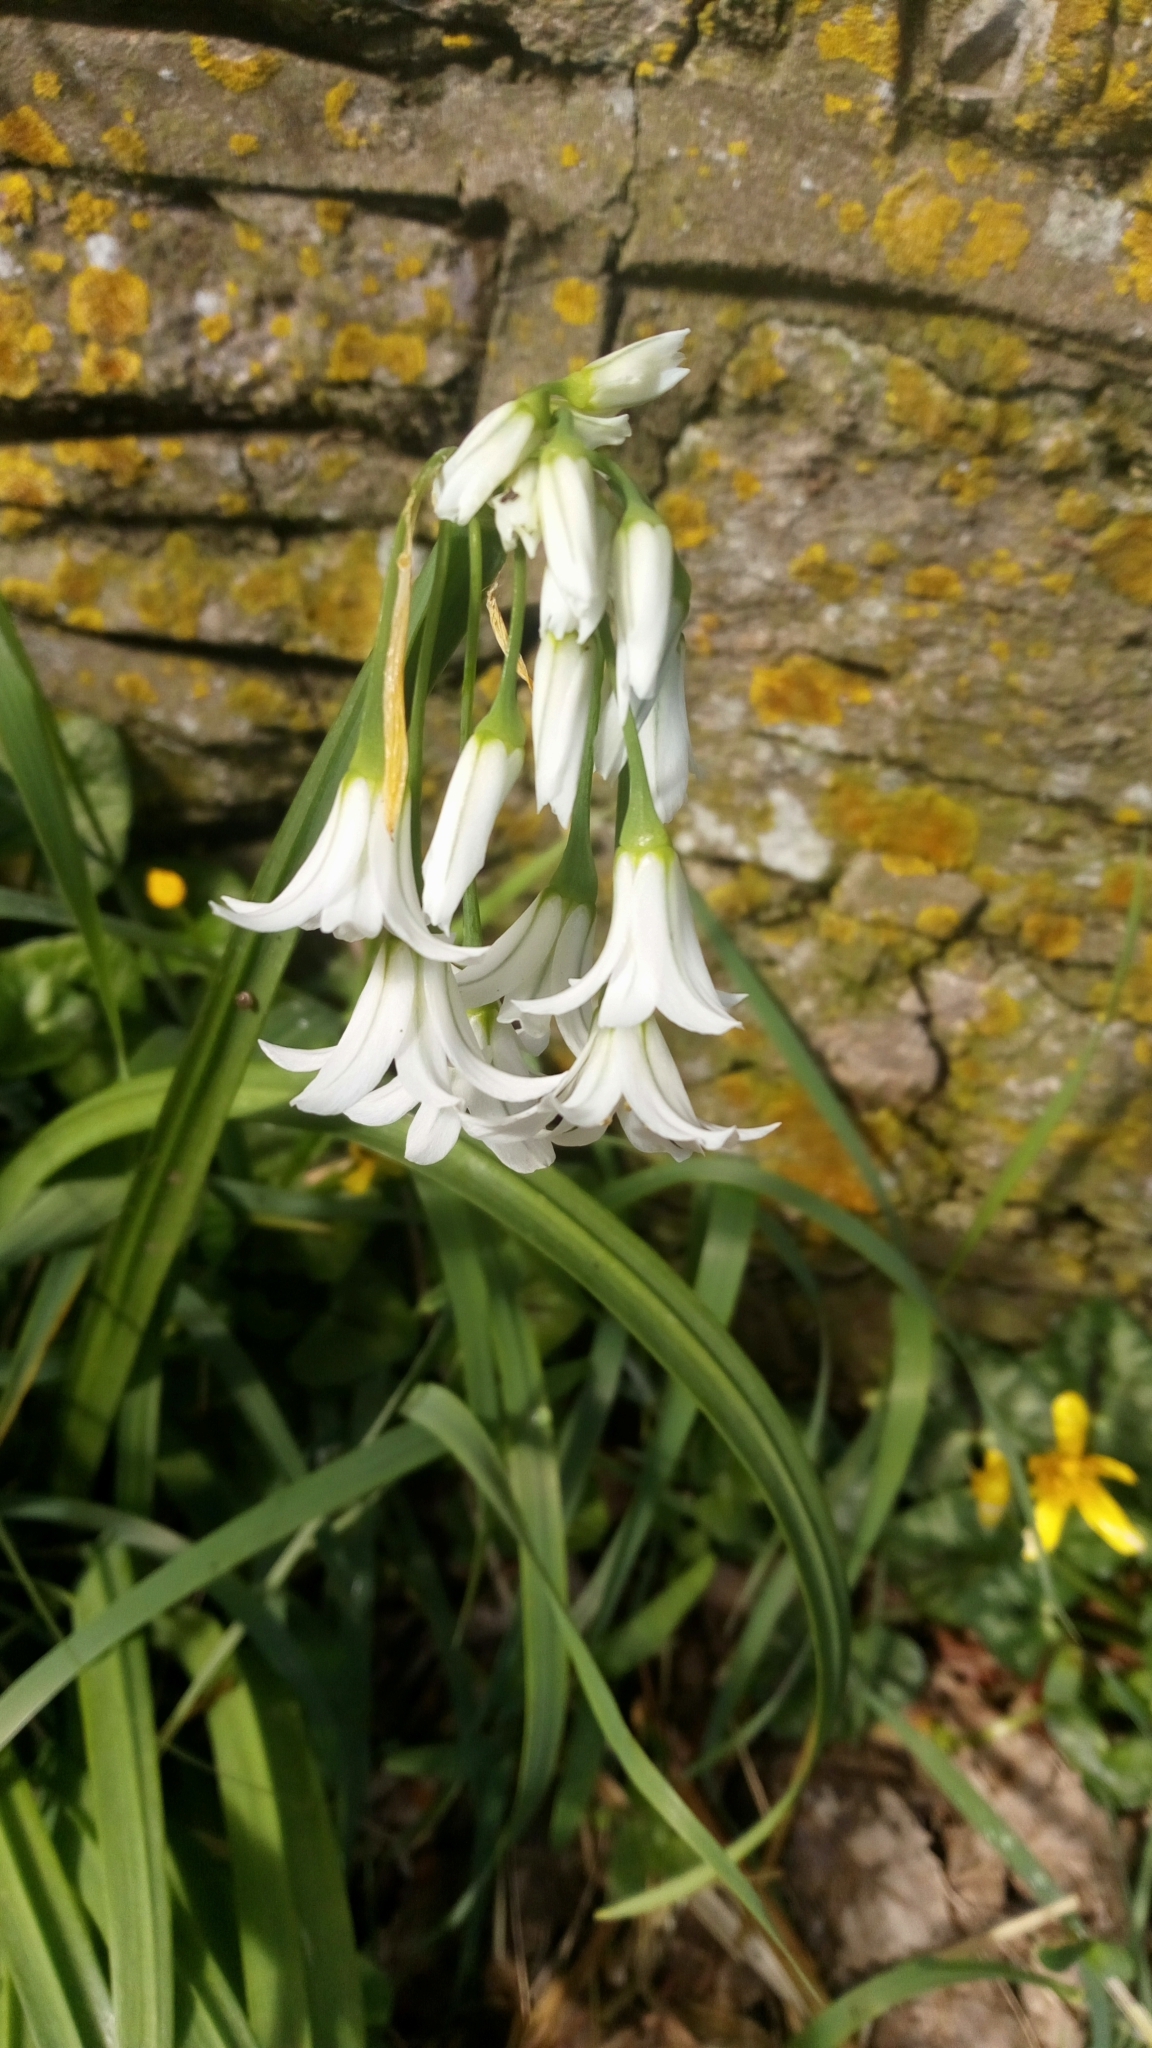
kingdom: Plantae
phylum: Tracheophyta
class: Liliopsida
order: Asparagales
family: Amaryllidaceae
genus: Allium
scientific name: Allium triquetrum
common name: Three-cornered garlic
